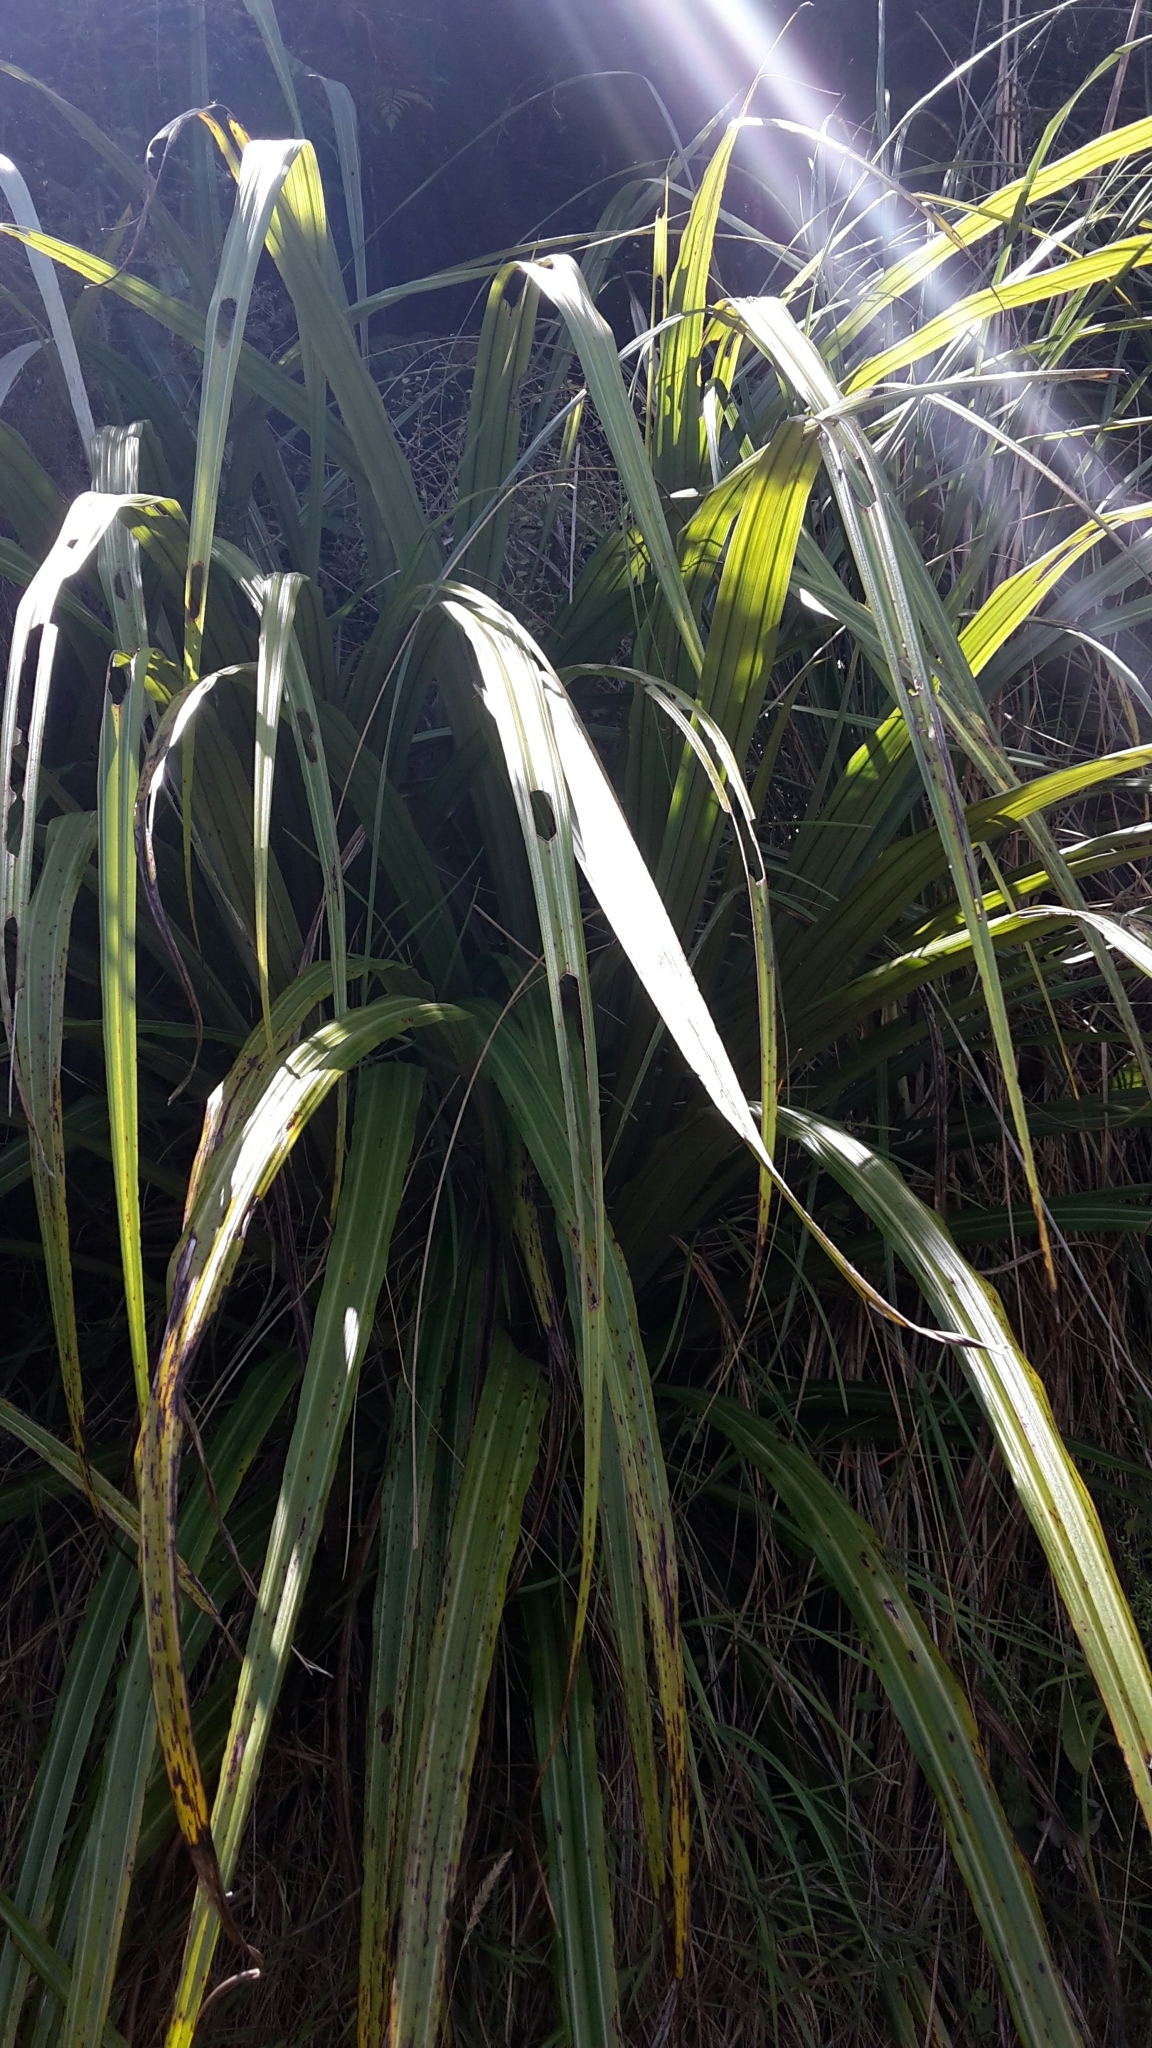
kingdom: Plantae
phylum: Tracheophyta
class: Liliopsida
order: Asparagales
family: Asteliaceae
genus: Astelia
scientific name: Astelia fragrans
